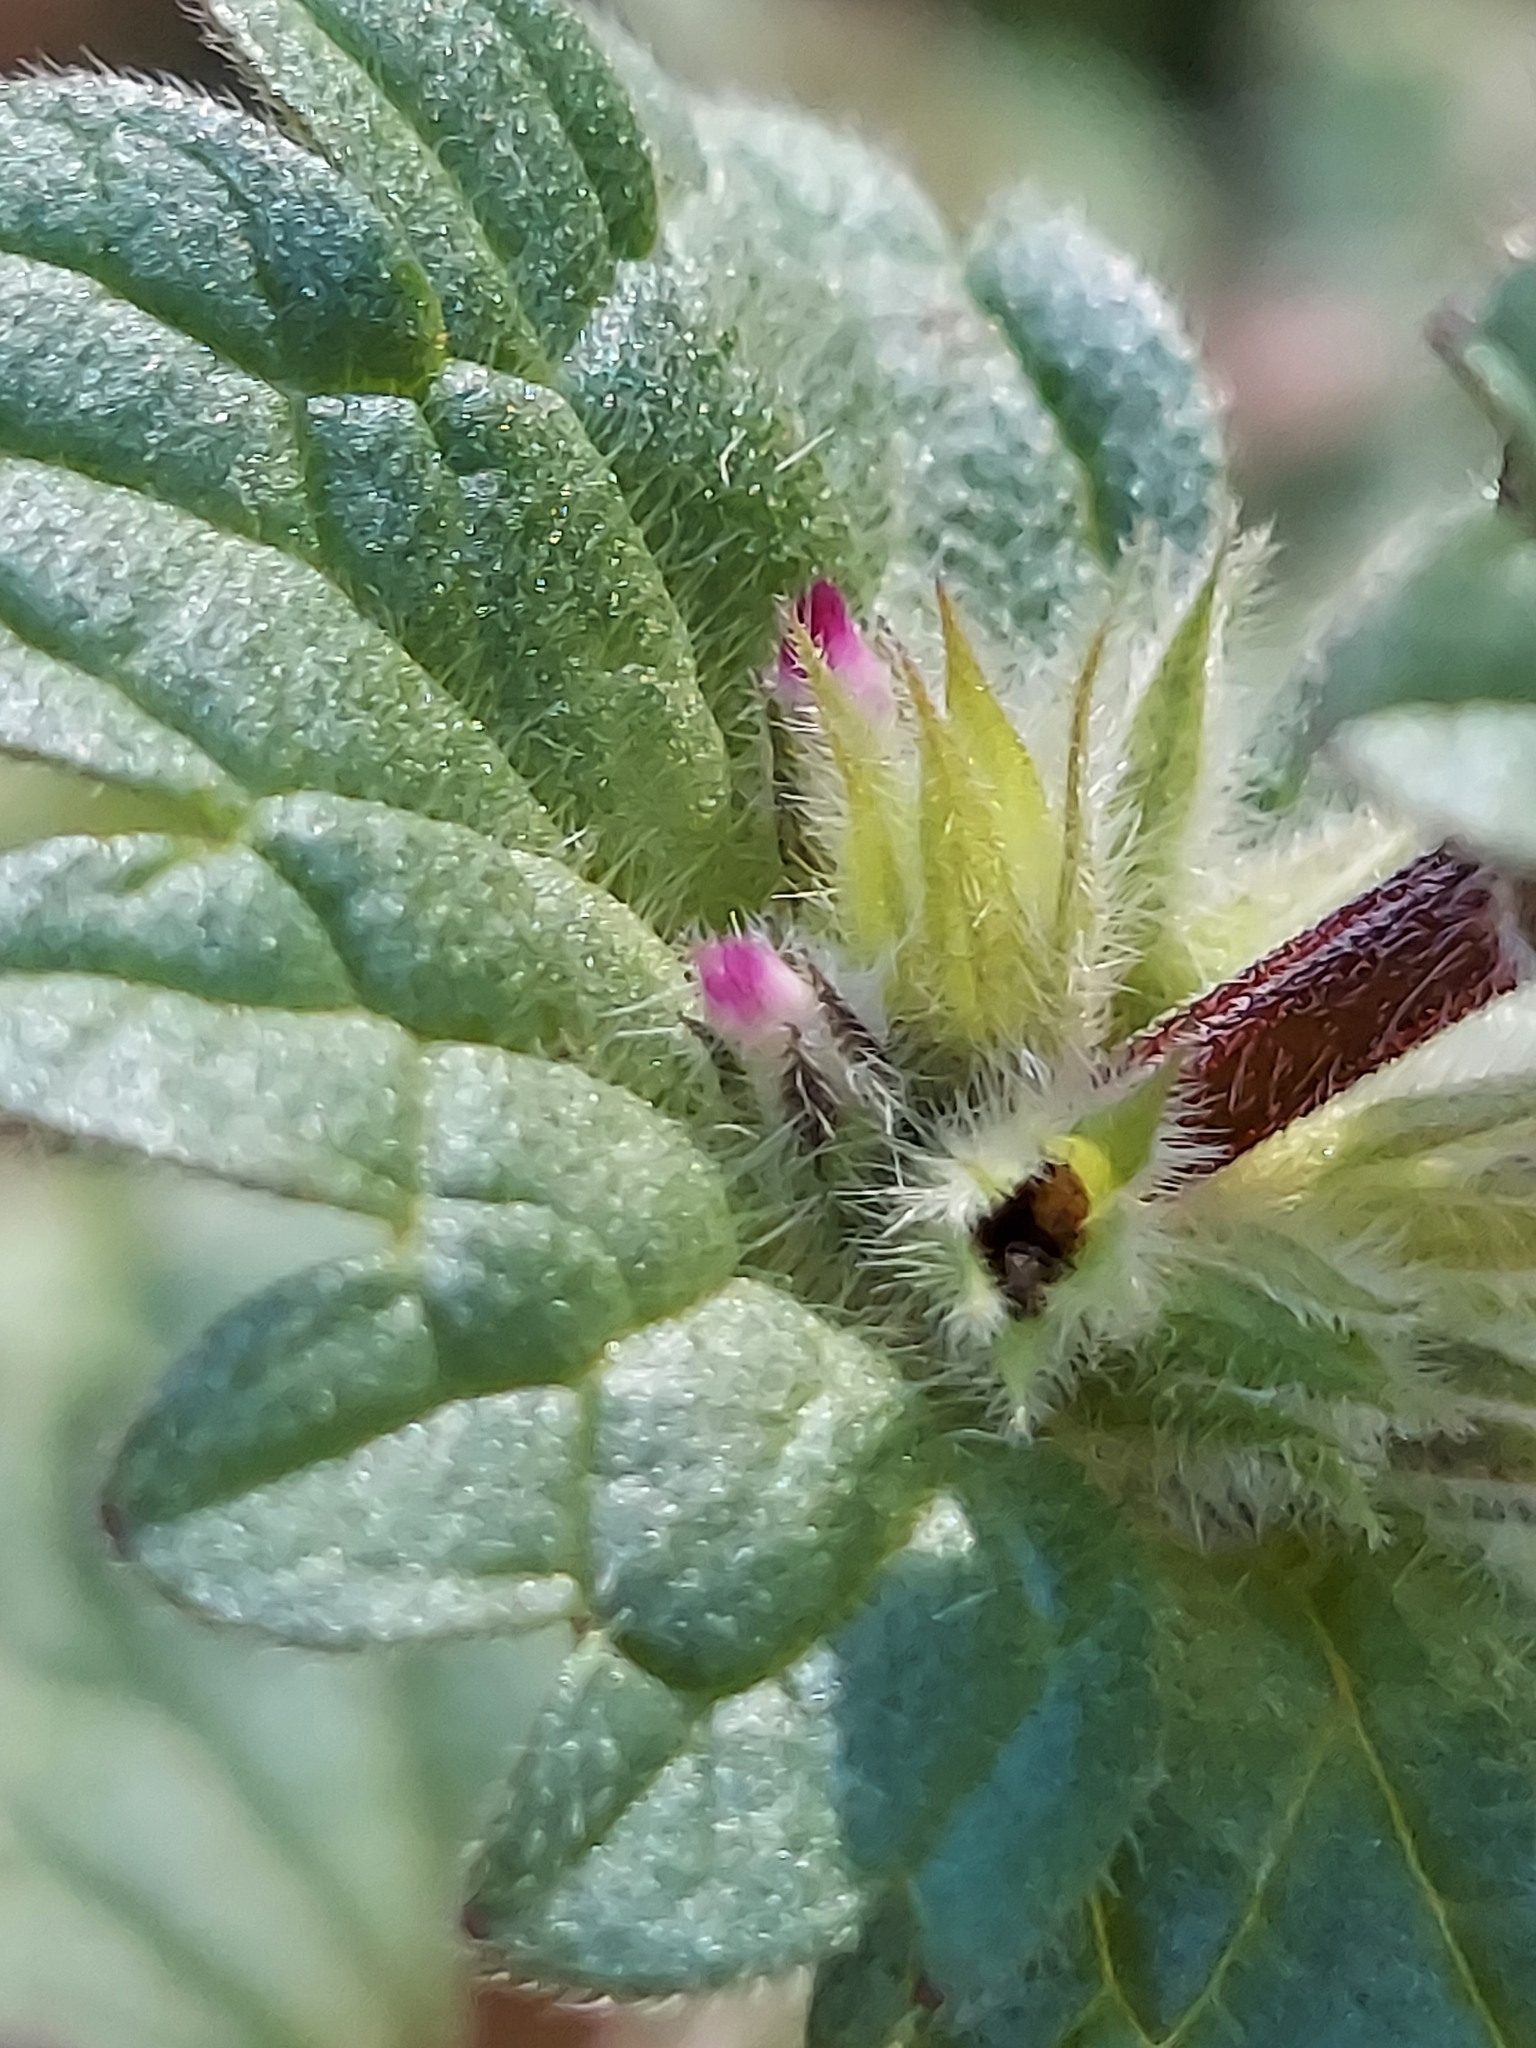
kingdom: Plantae
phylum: Tracheophyta
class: Magnoliopsida
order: Lamiales
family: Lamiaceae
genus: Lamium
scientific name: Lamium amplexicaule
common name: Henbit dead-nettle
